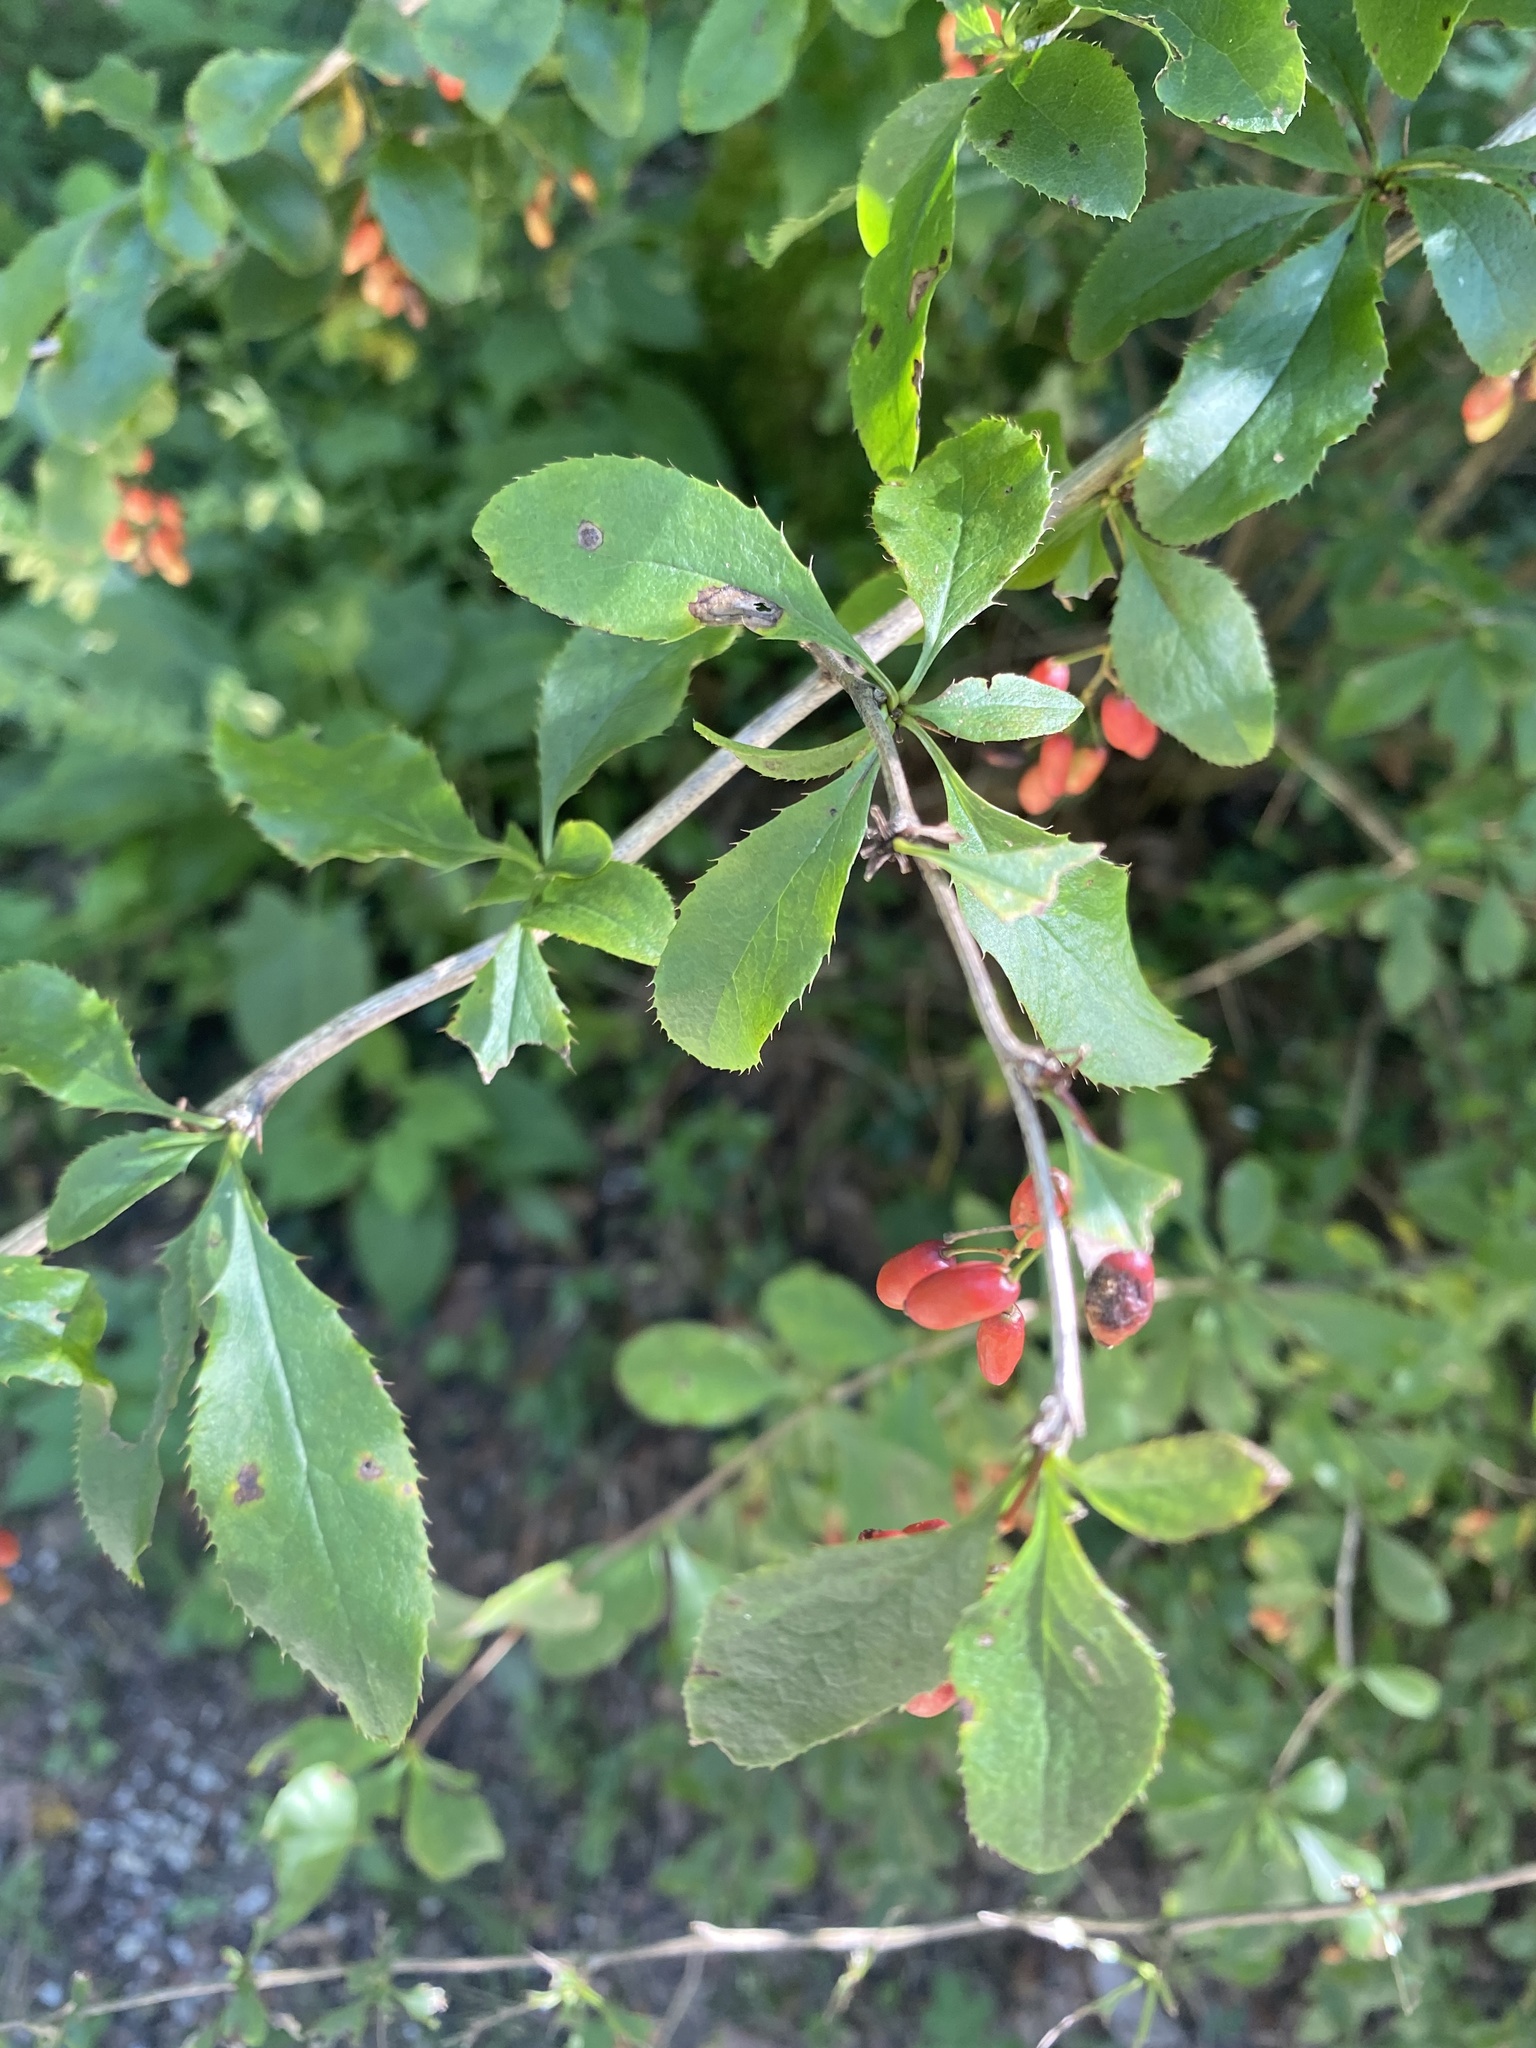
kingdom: Plantae
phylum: Tracheophyta
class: Magnoliopsida
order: Ranunculales
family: Berberidaceae
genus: Berberis
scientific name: Berberis vulgaris
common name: Barberry
